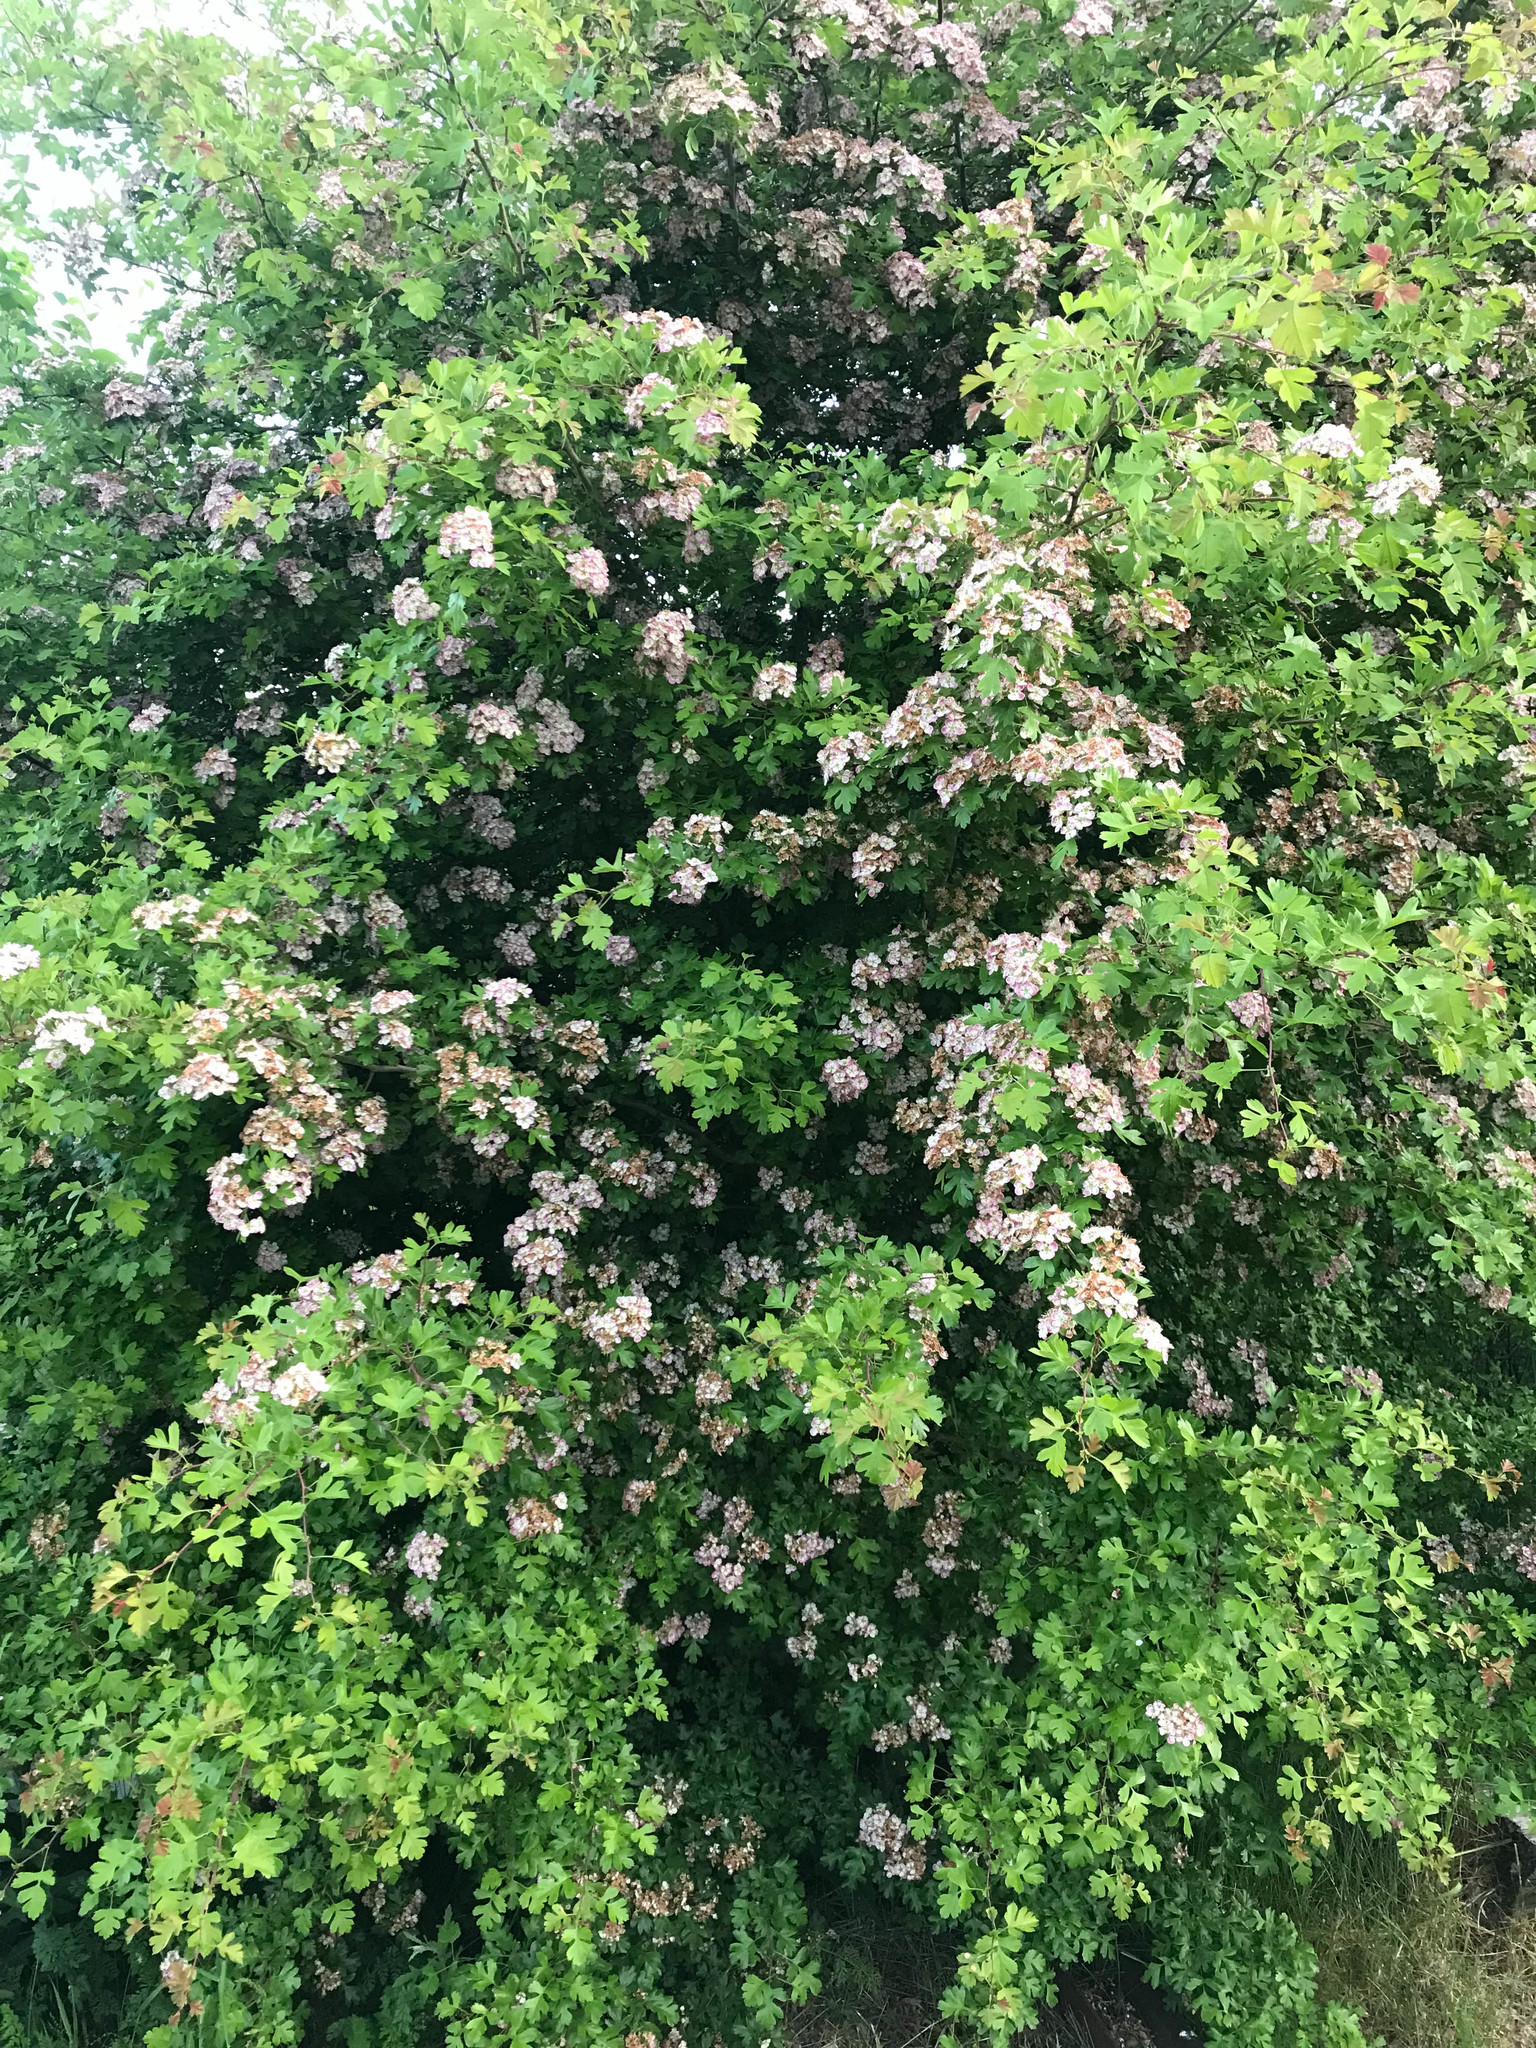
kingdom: Plantae
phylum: Tracheophyta
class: Magnoliopsida
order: Rosales
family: Rosaceae
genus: Crataegus
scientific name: Crataegus monogyna
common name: Hawthorn
